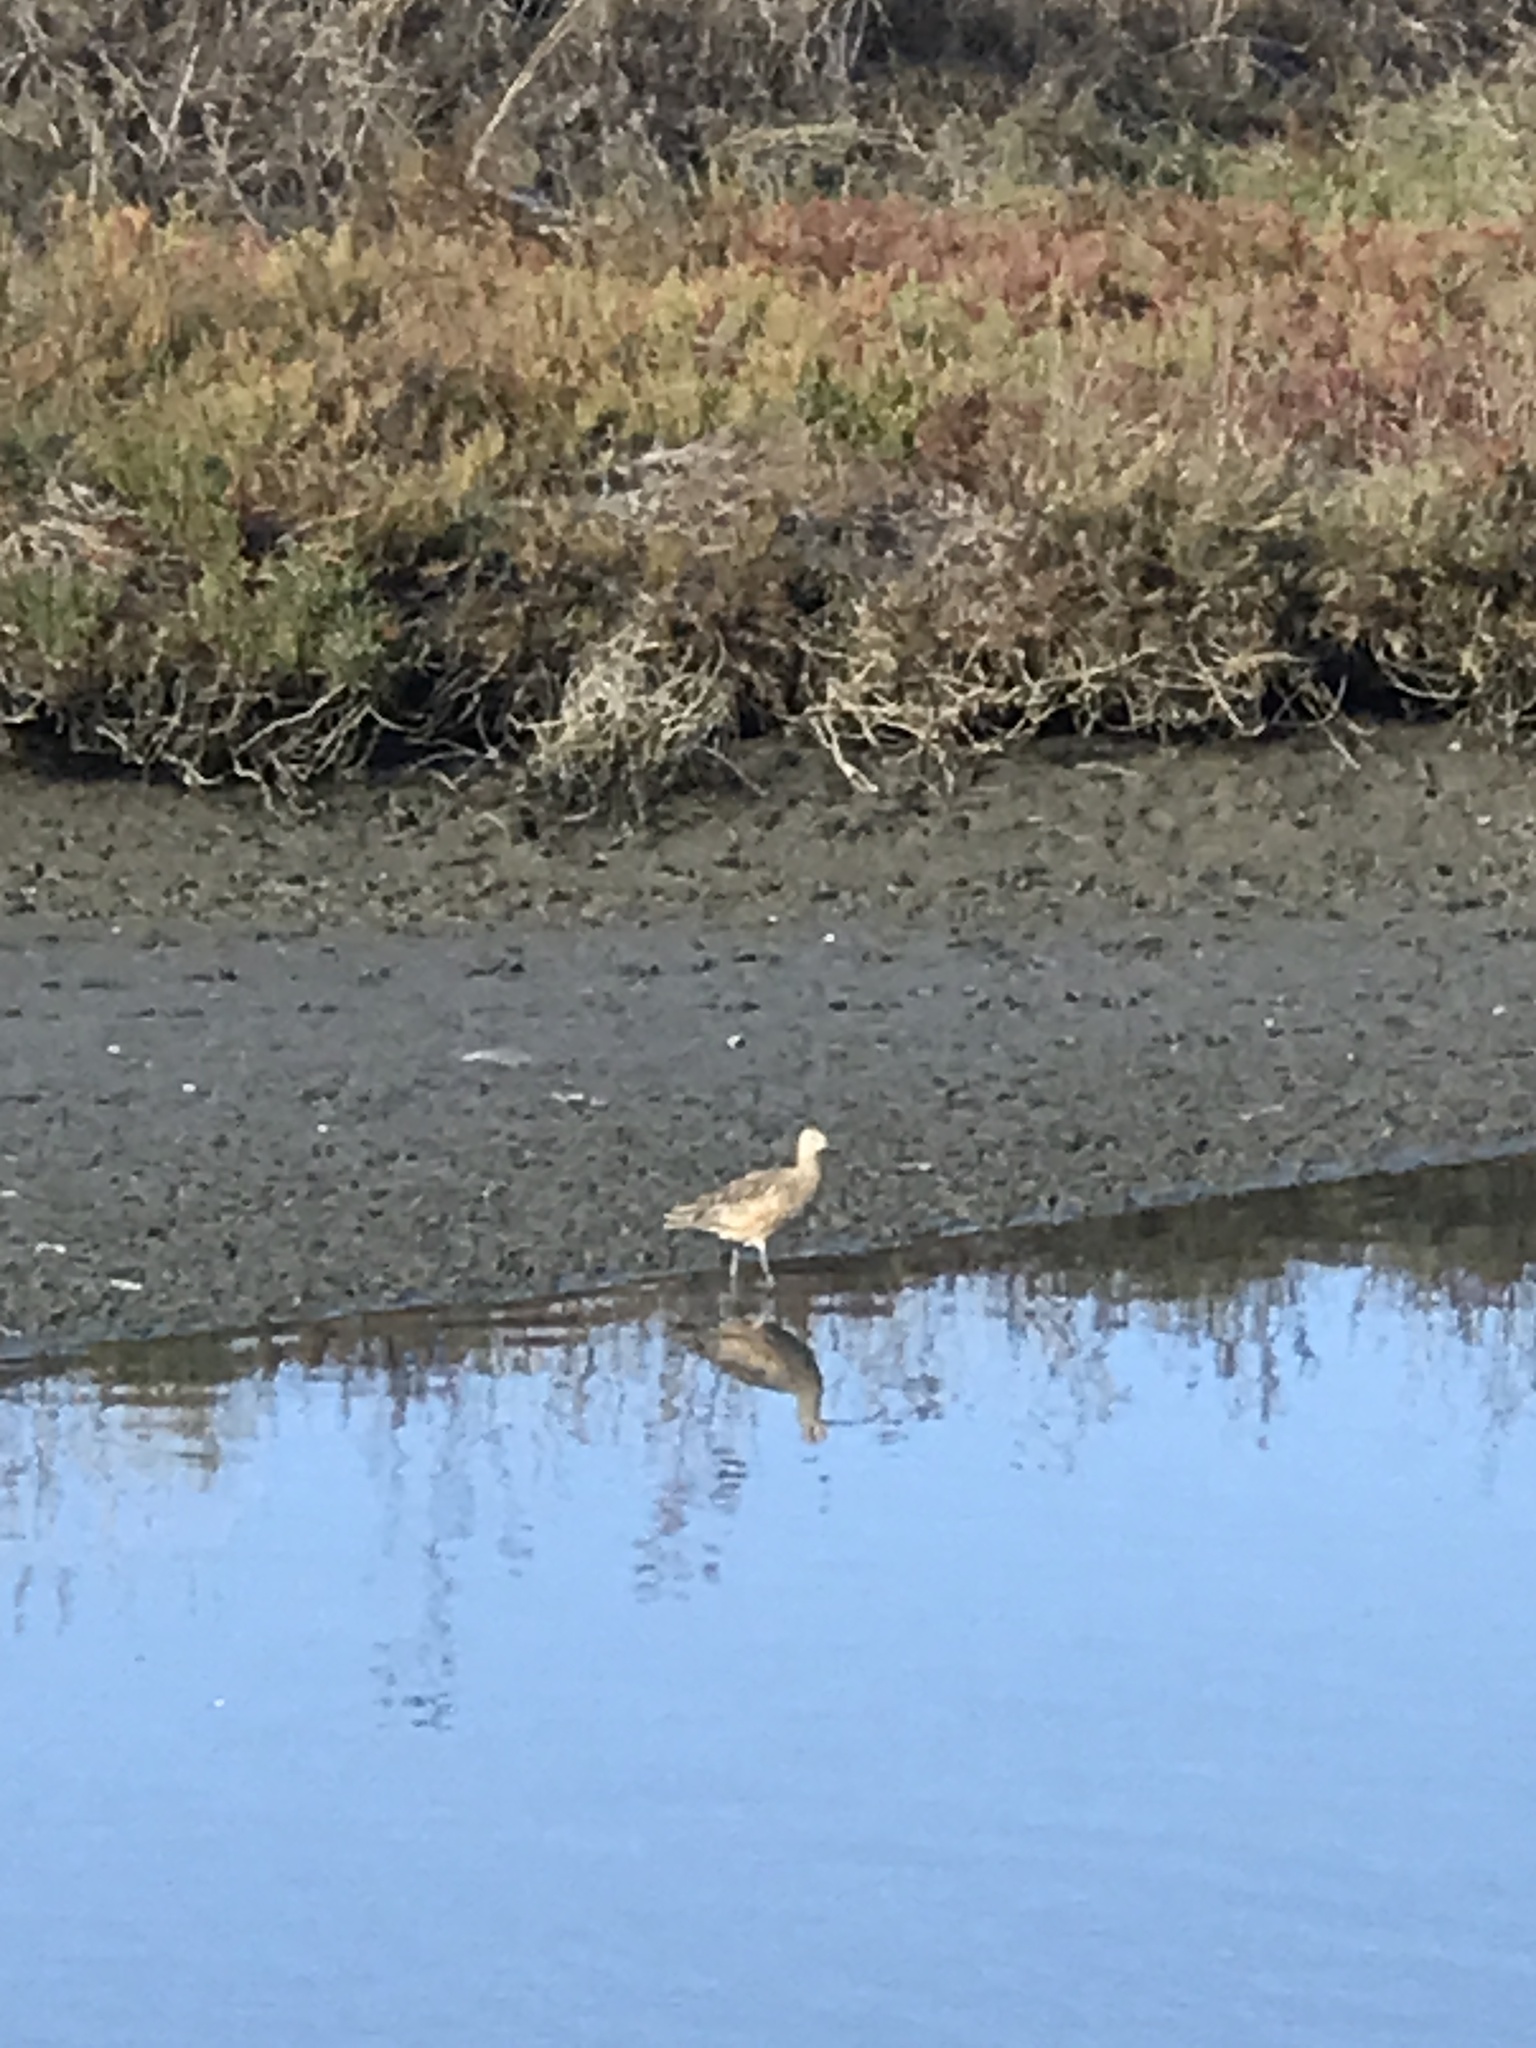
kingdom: Animalia
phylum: Chordata
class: Aves
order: Charadriiformes
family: Scolopacidae
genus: Numenius
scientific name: Numenius americanus
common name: Long-billed curlew
